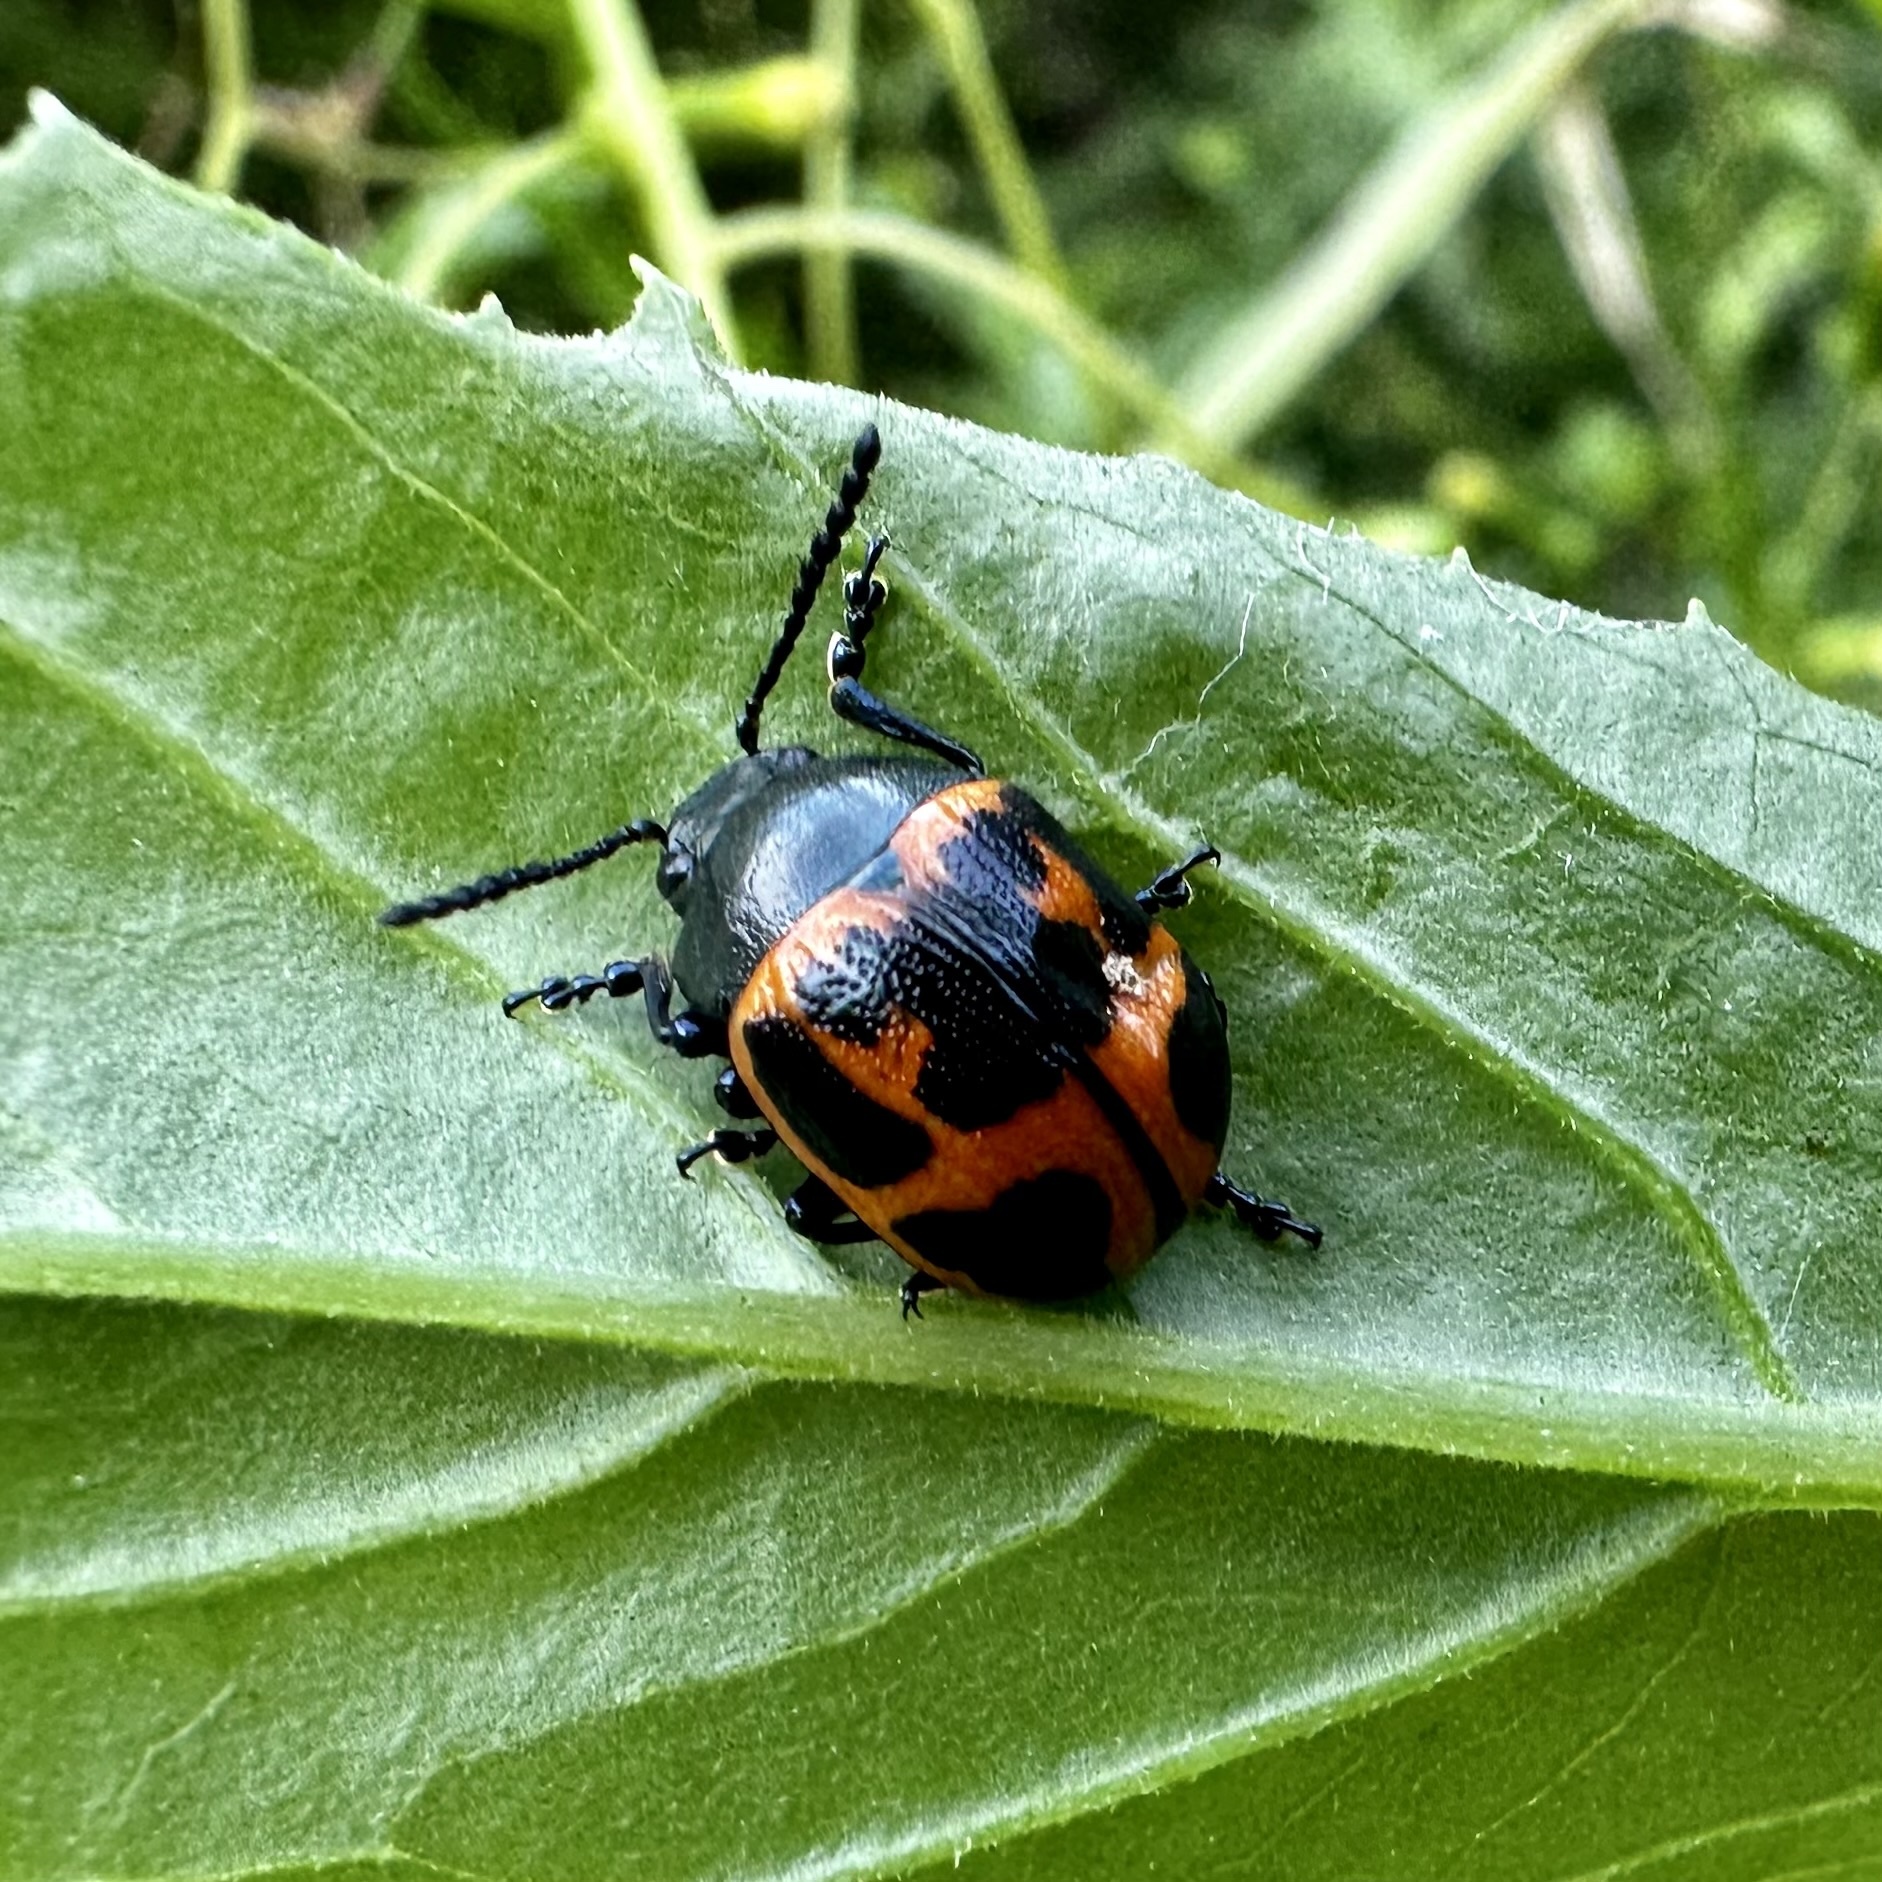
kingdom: Animalia
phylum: Arthropoda
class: Insecta
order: Coleoptera
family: Chrysomelidae
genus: Labidomera
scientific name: Labidomera clivicollis
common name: Swamp milkweed leaf beetle
